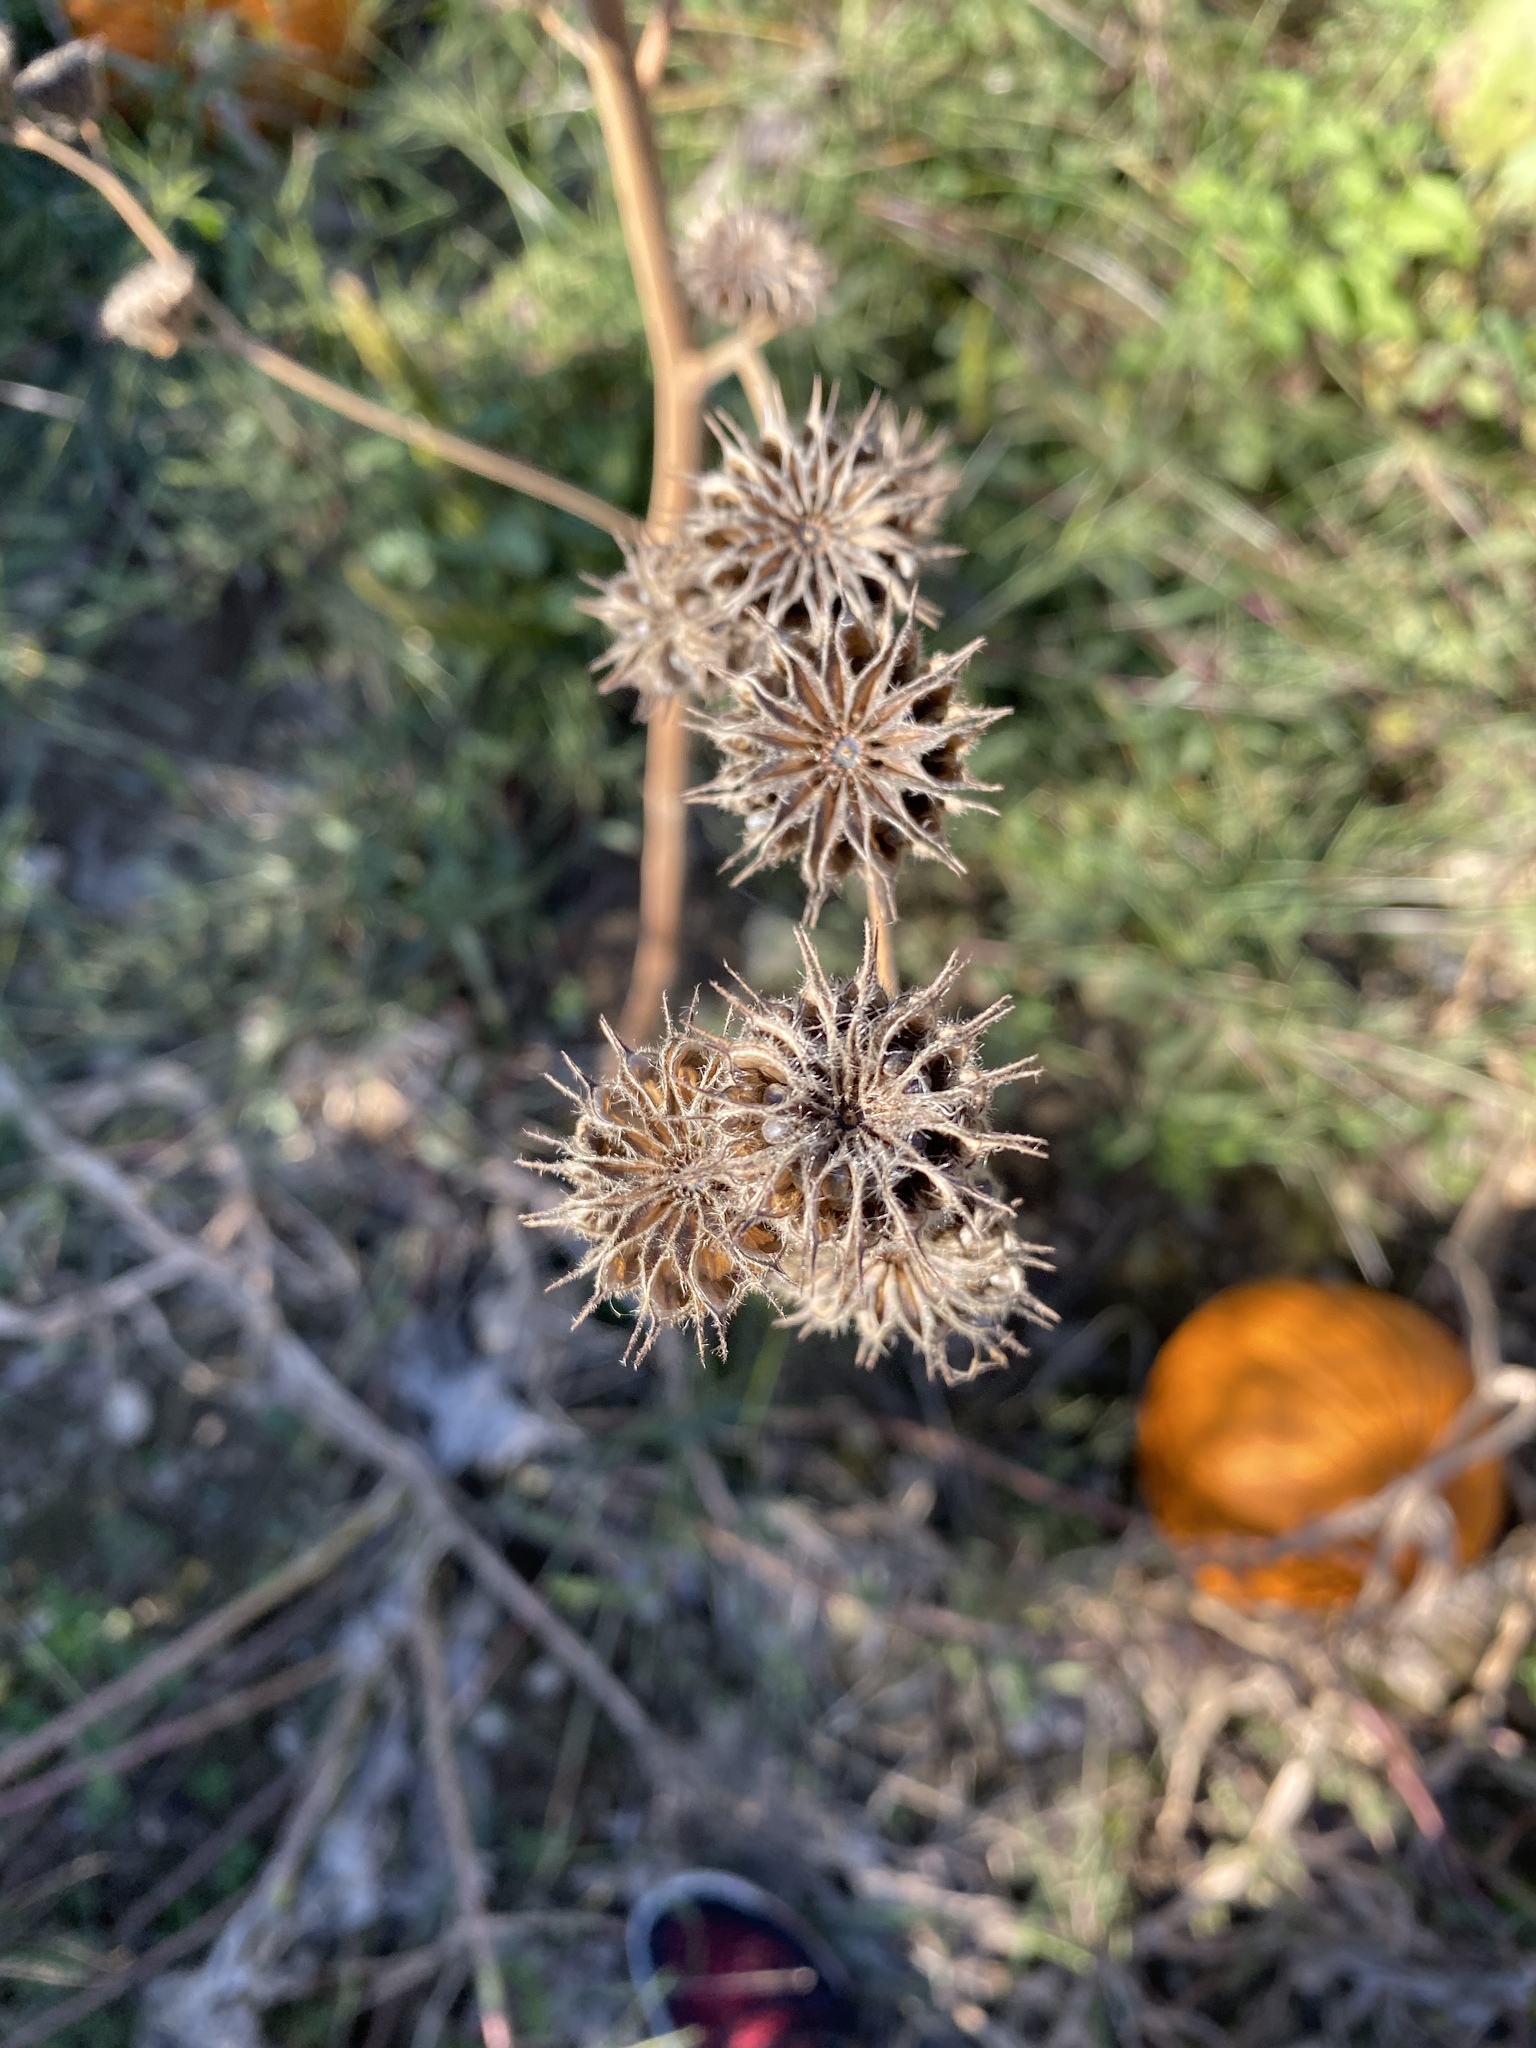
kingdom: Plantae
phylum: Tracheophyta
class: Magnoliopsida
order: Malvales
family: Malvaceae
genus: Abutilon
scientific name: Abutilon theophrasti
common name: Velvetleaf
